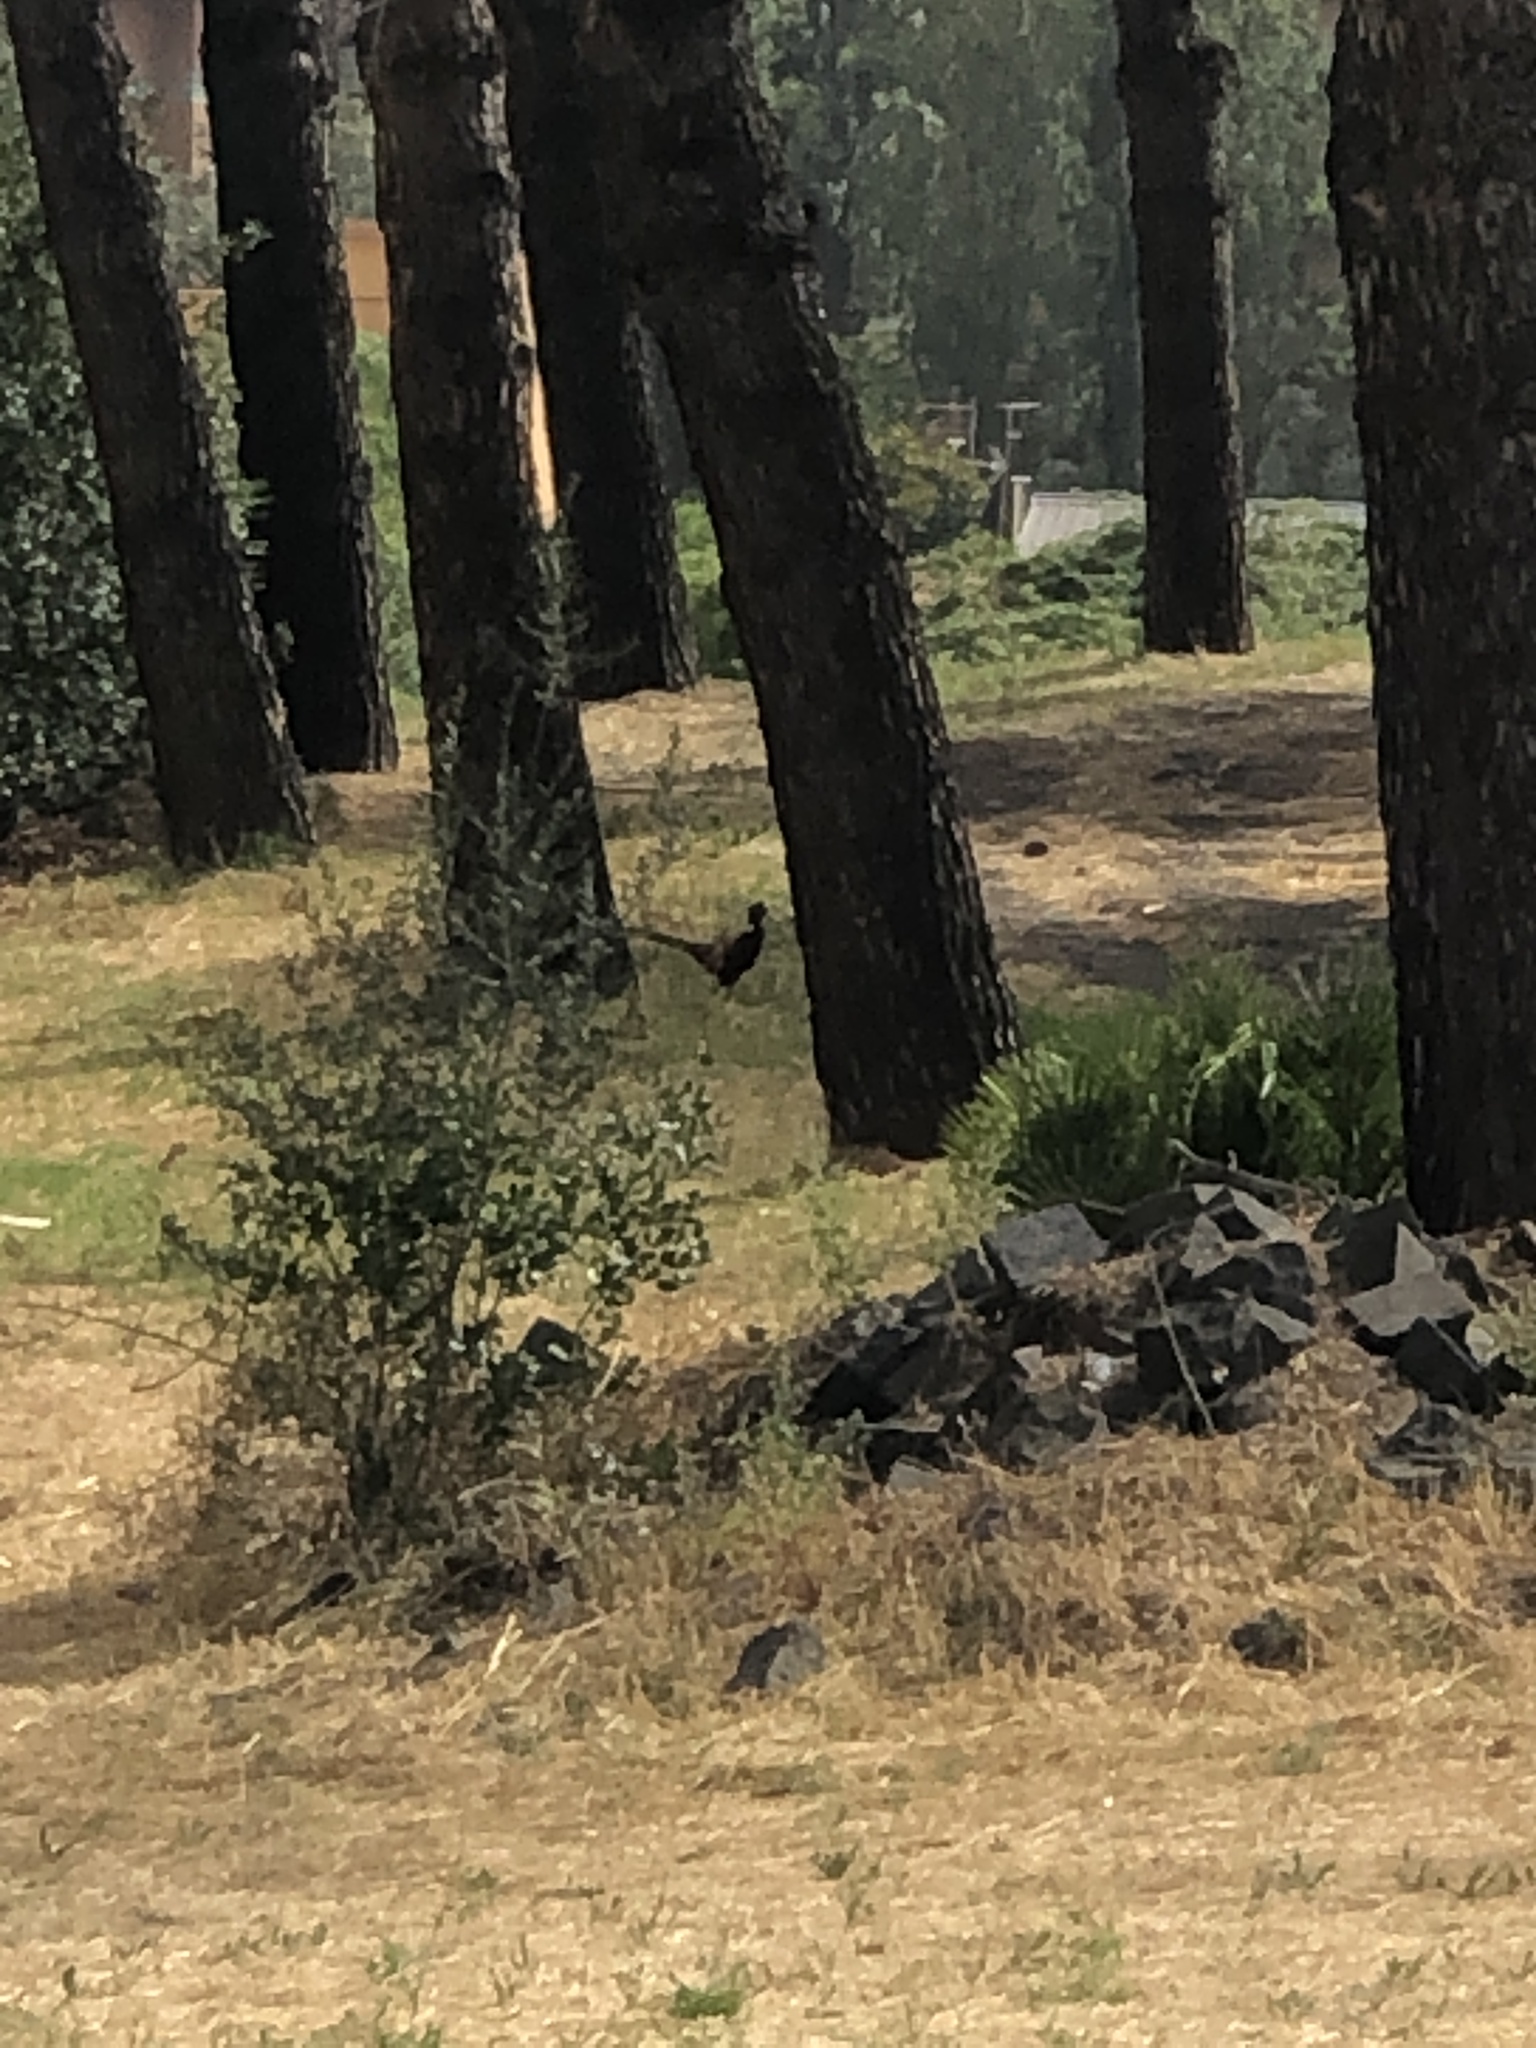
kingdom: Animalia
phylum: Chordata
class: Aves
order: Galliformes
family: Phasianidae
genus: Phasianus
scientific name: Phasianus colchicus
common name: Common pheasant
